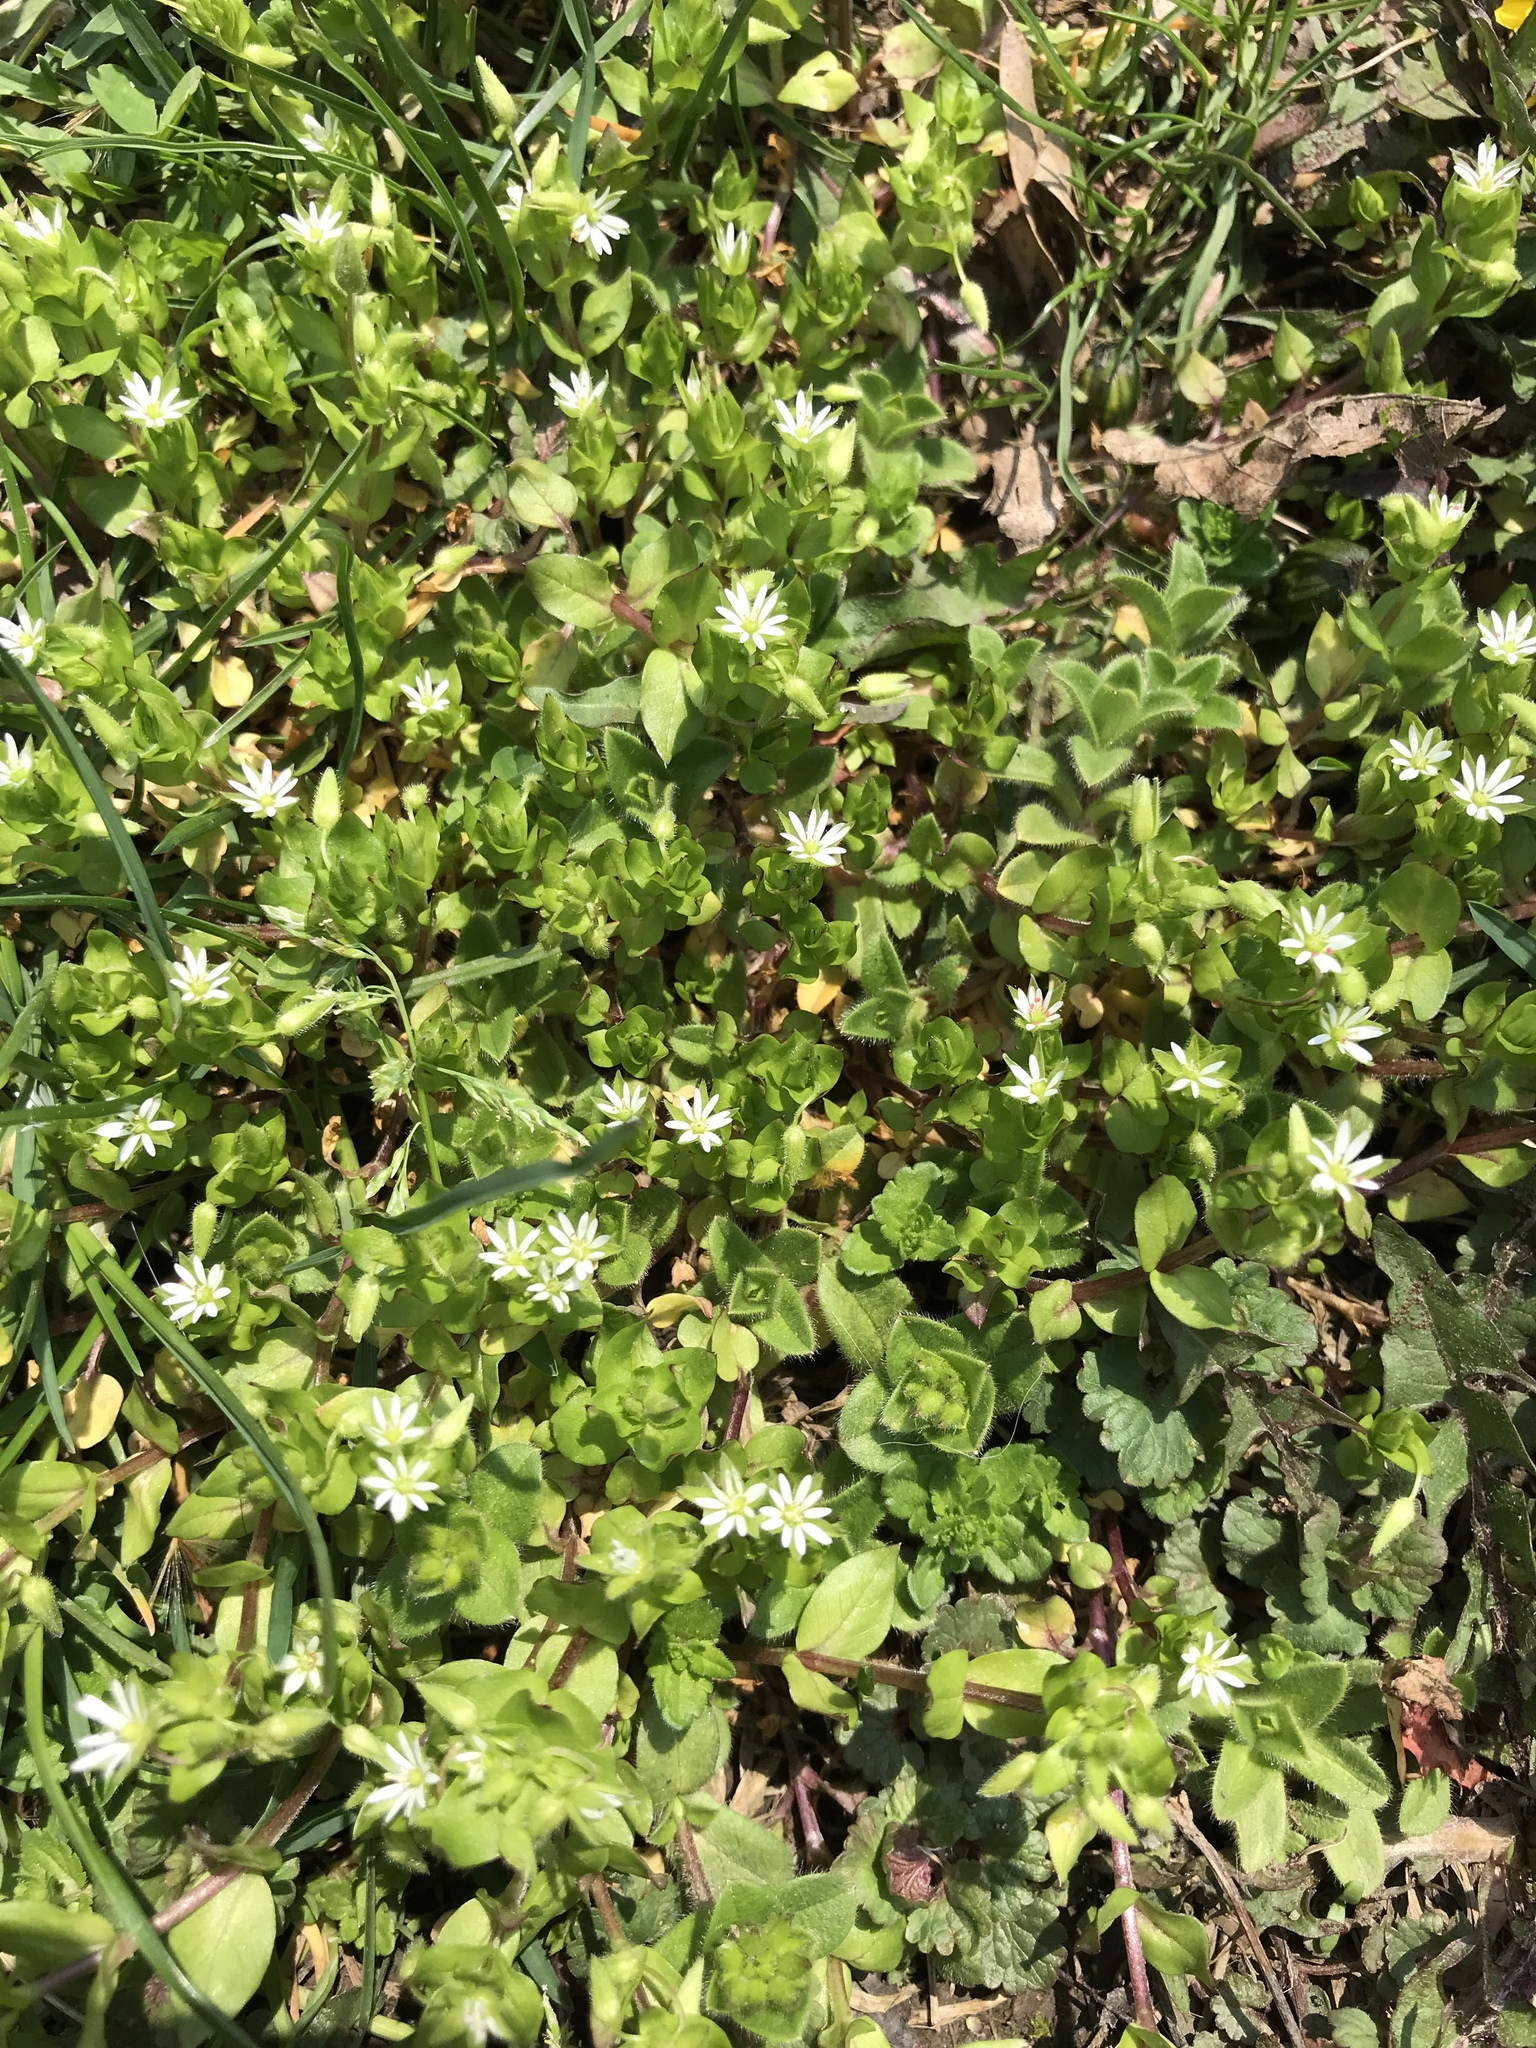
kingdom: Plantae
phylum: Tracheophyta
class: Magnoliopsida
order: Caryophyllales
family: Caryophyllaceae
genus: Stellaria
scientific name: Stellaria media
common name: Common chickweed
